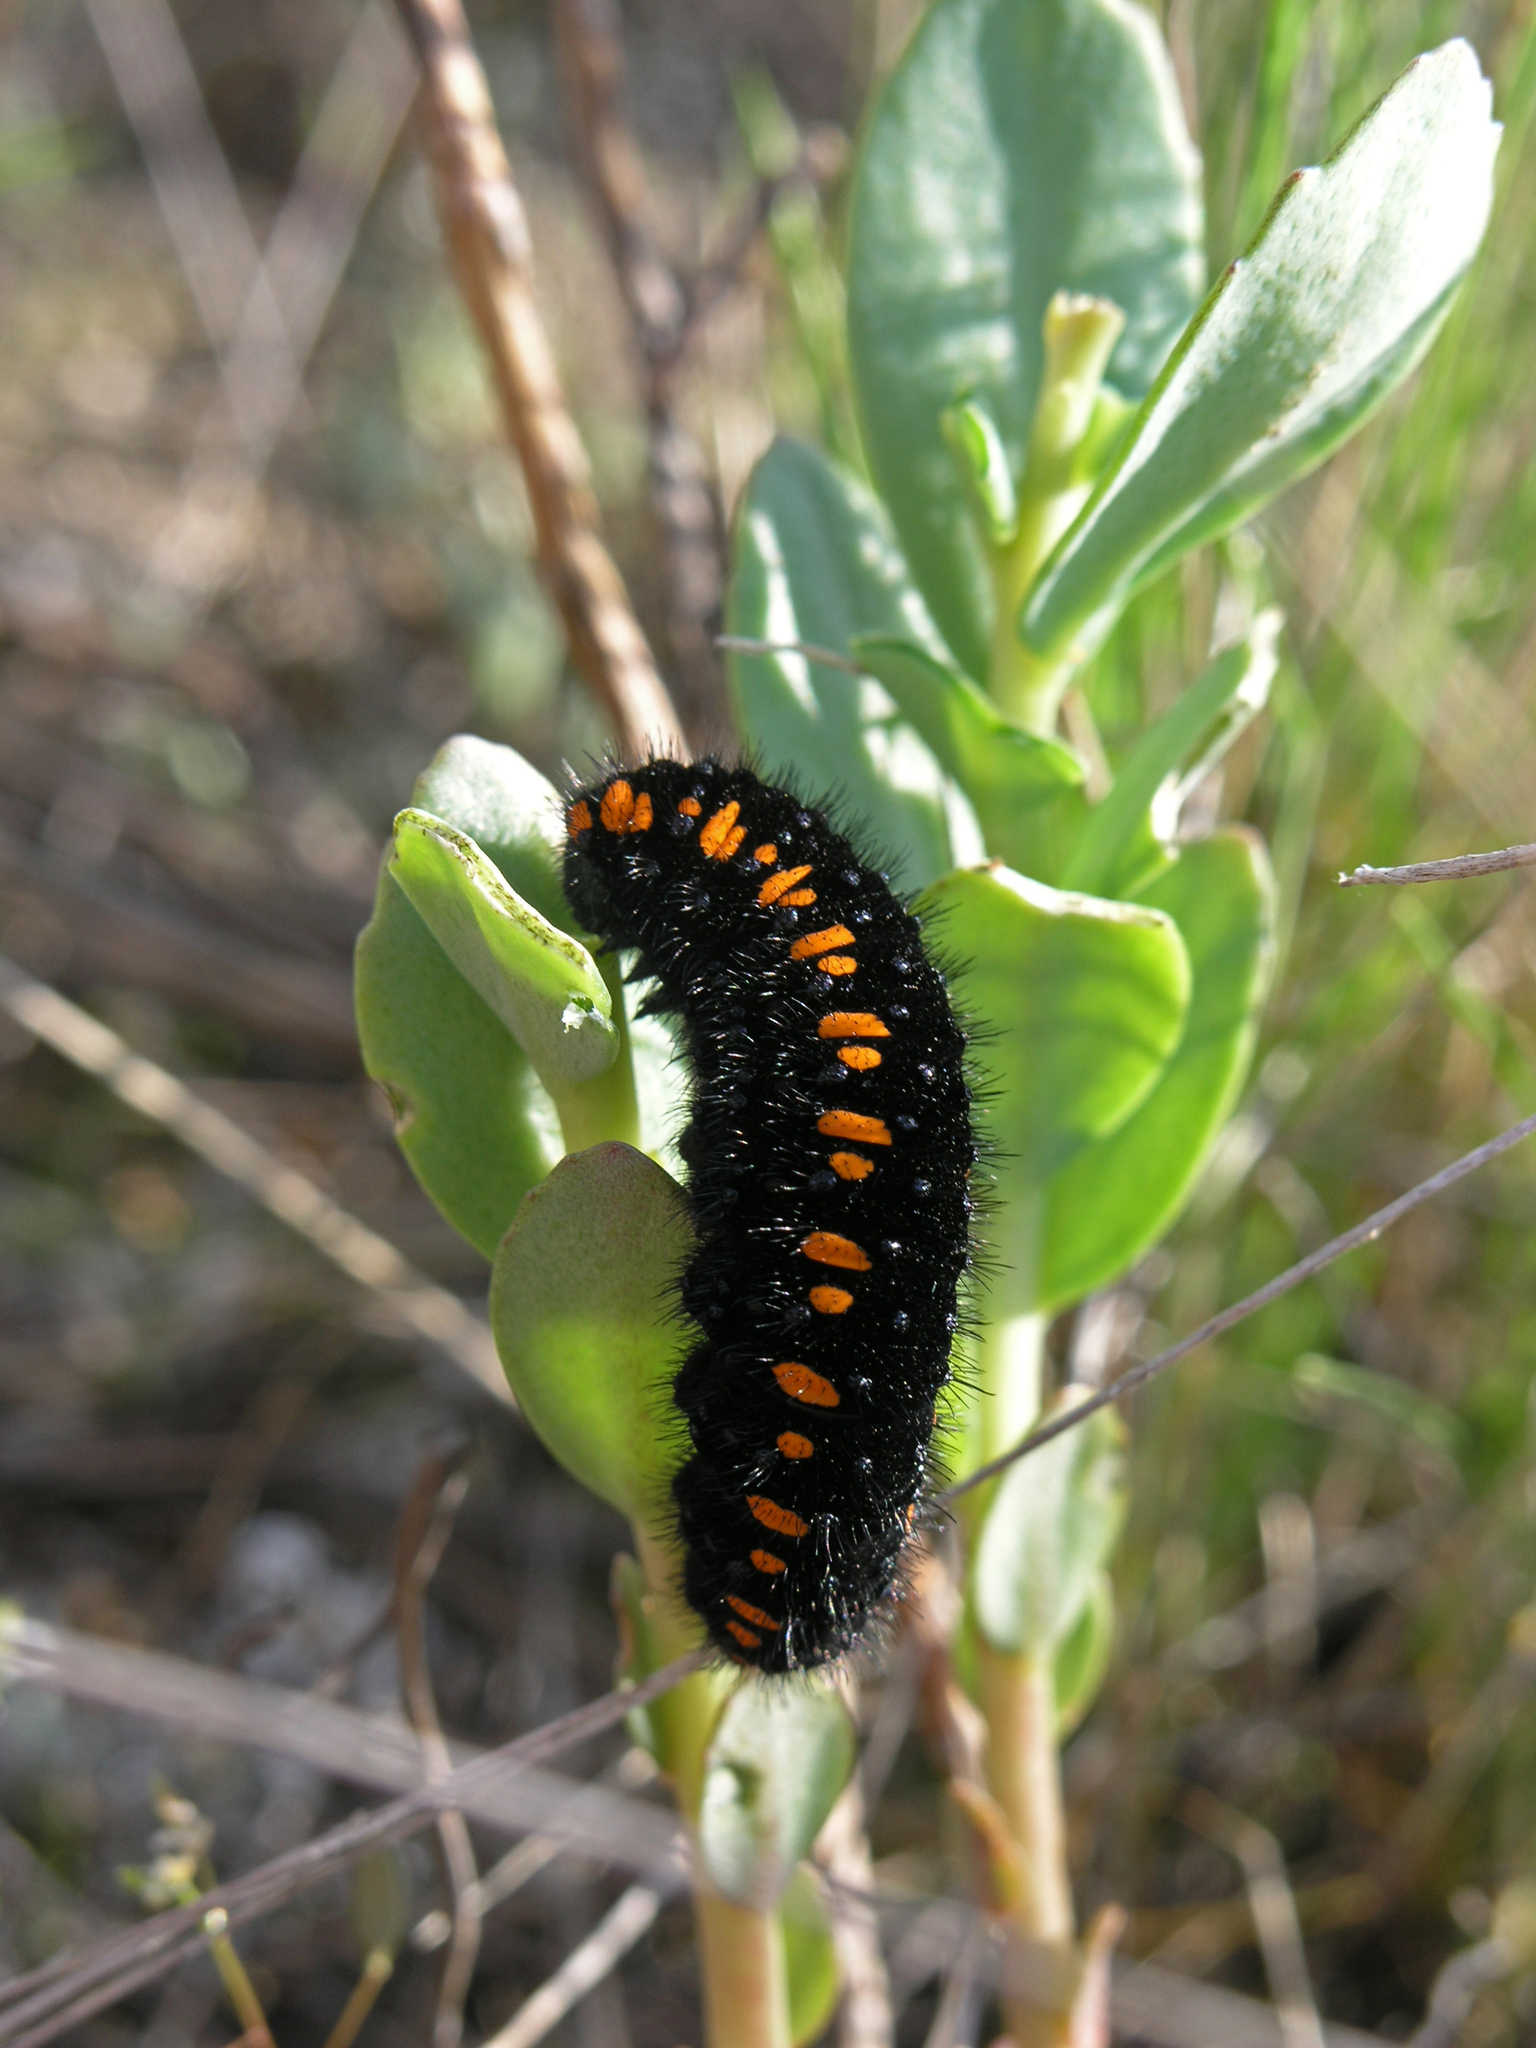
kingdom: Animalia
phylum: Arthropoda
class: Insecta
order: Lepidoptera
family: Papilionidae
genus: Parnassius
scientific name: Parnassius apollo
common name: Apollo
